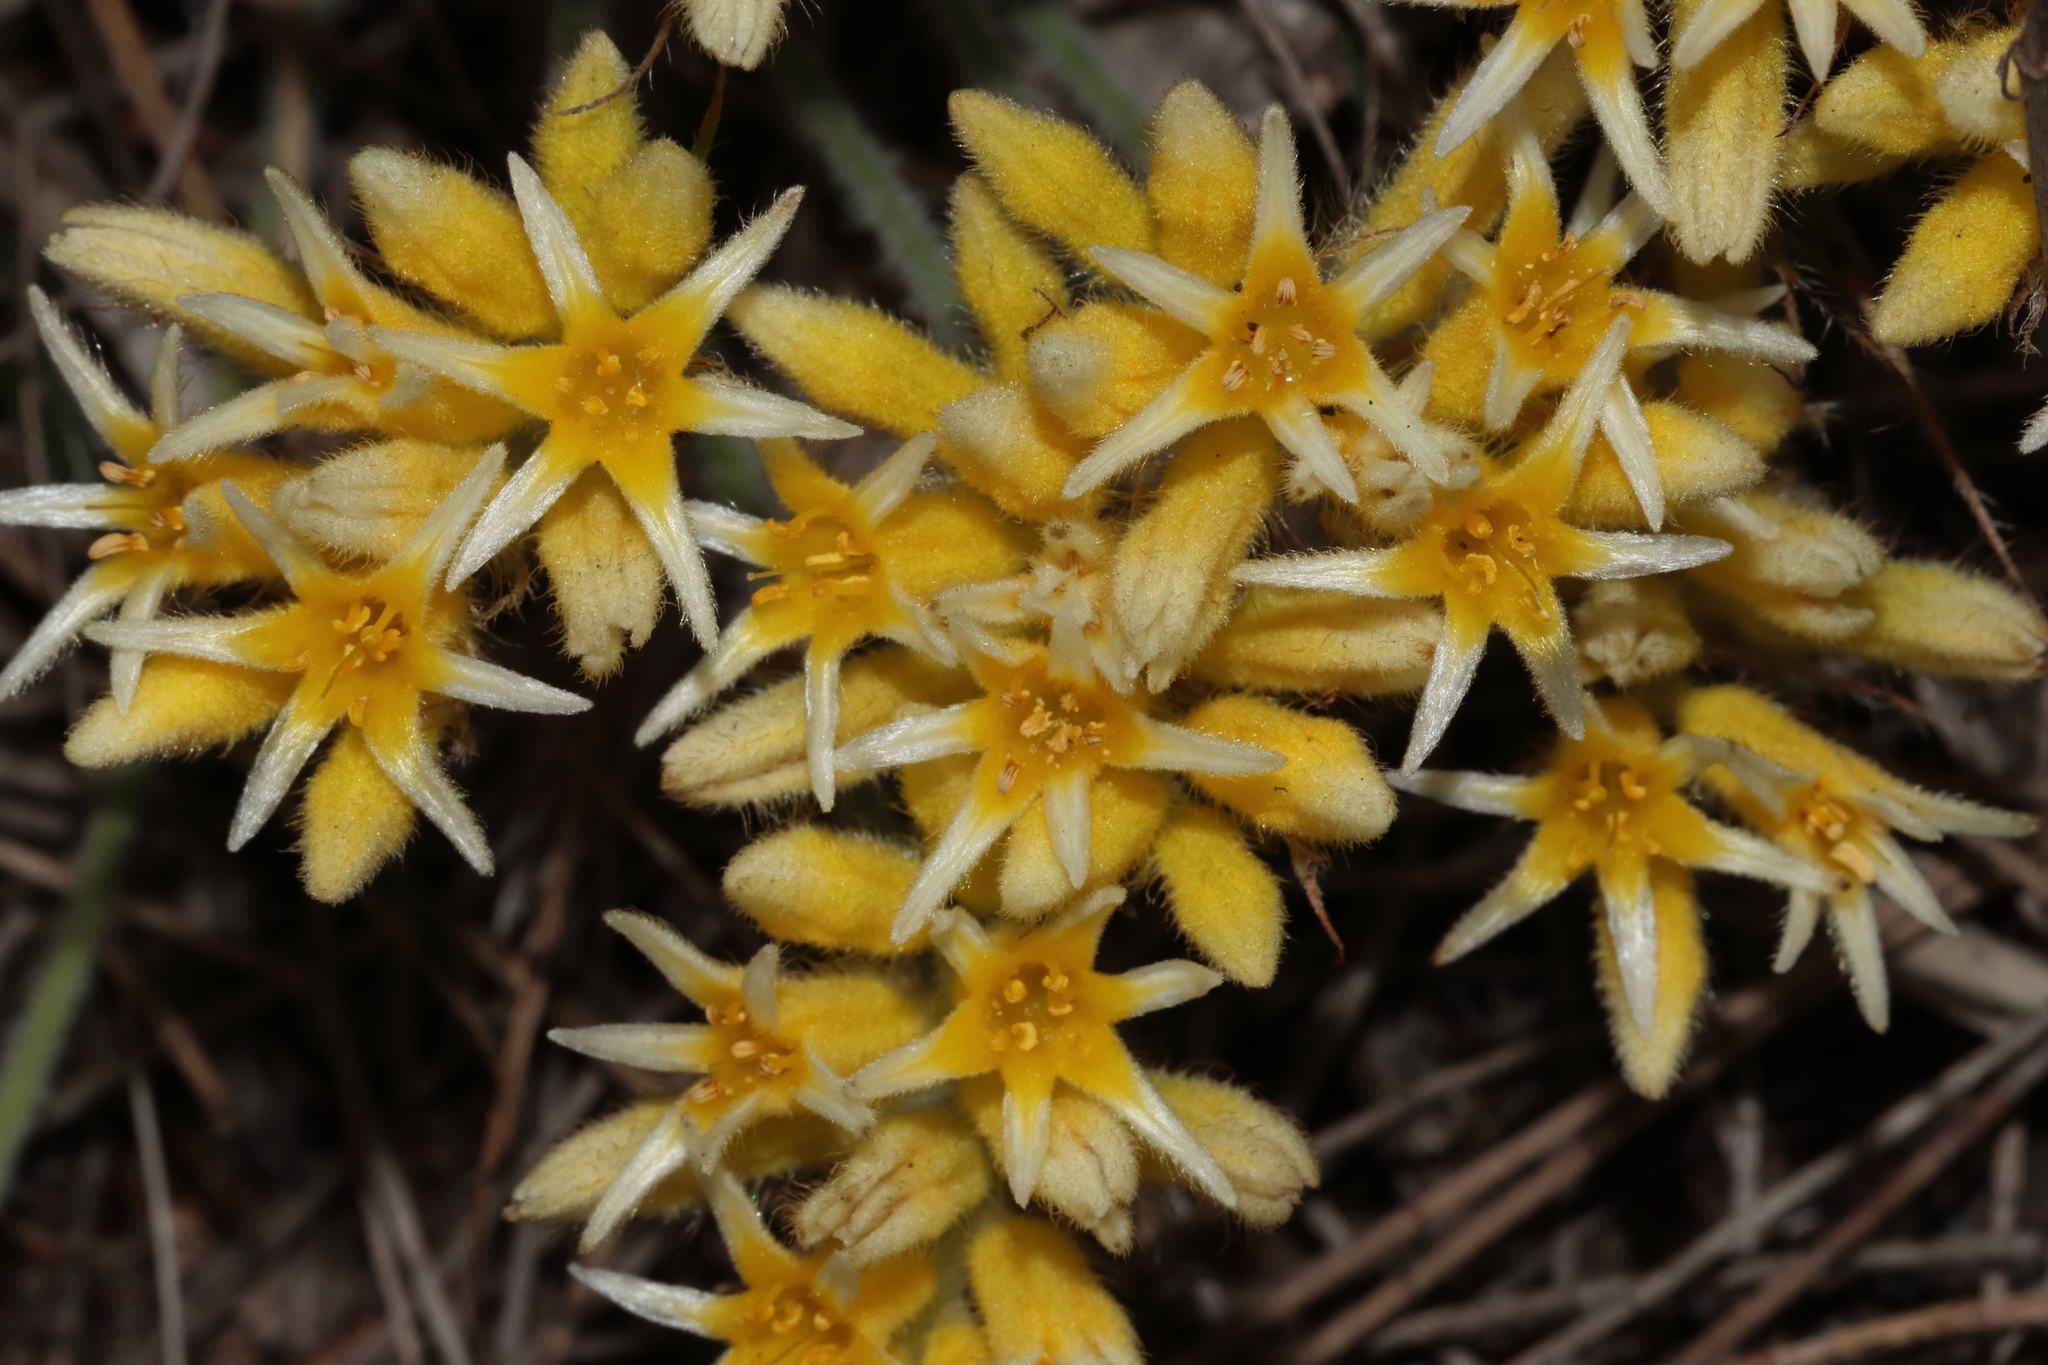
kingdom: Plantae
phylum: Tracheophyta
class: Liliopsida
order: Commelinales
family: Haemodoraceae
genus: Conostylis
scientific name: Conostylis setigera
